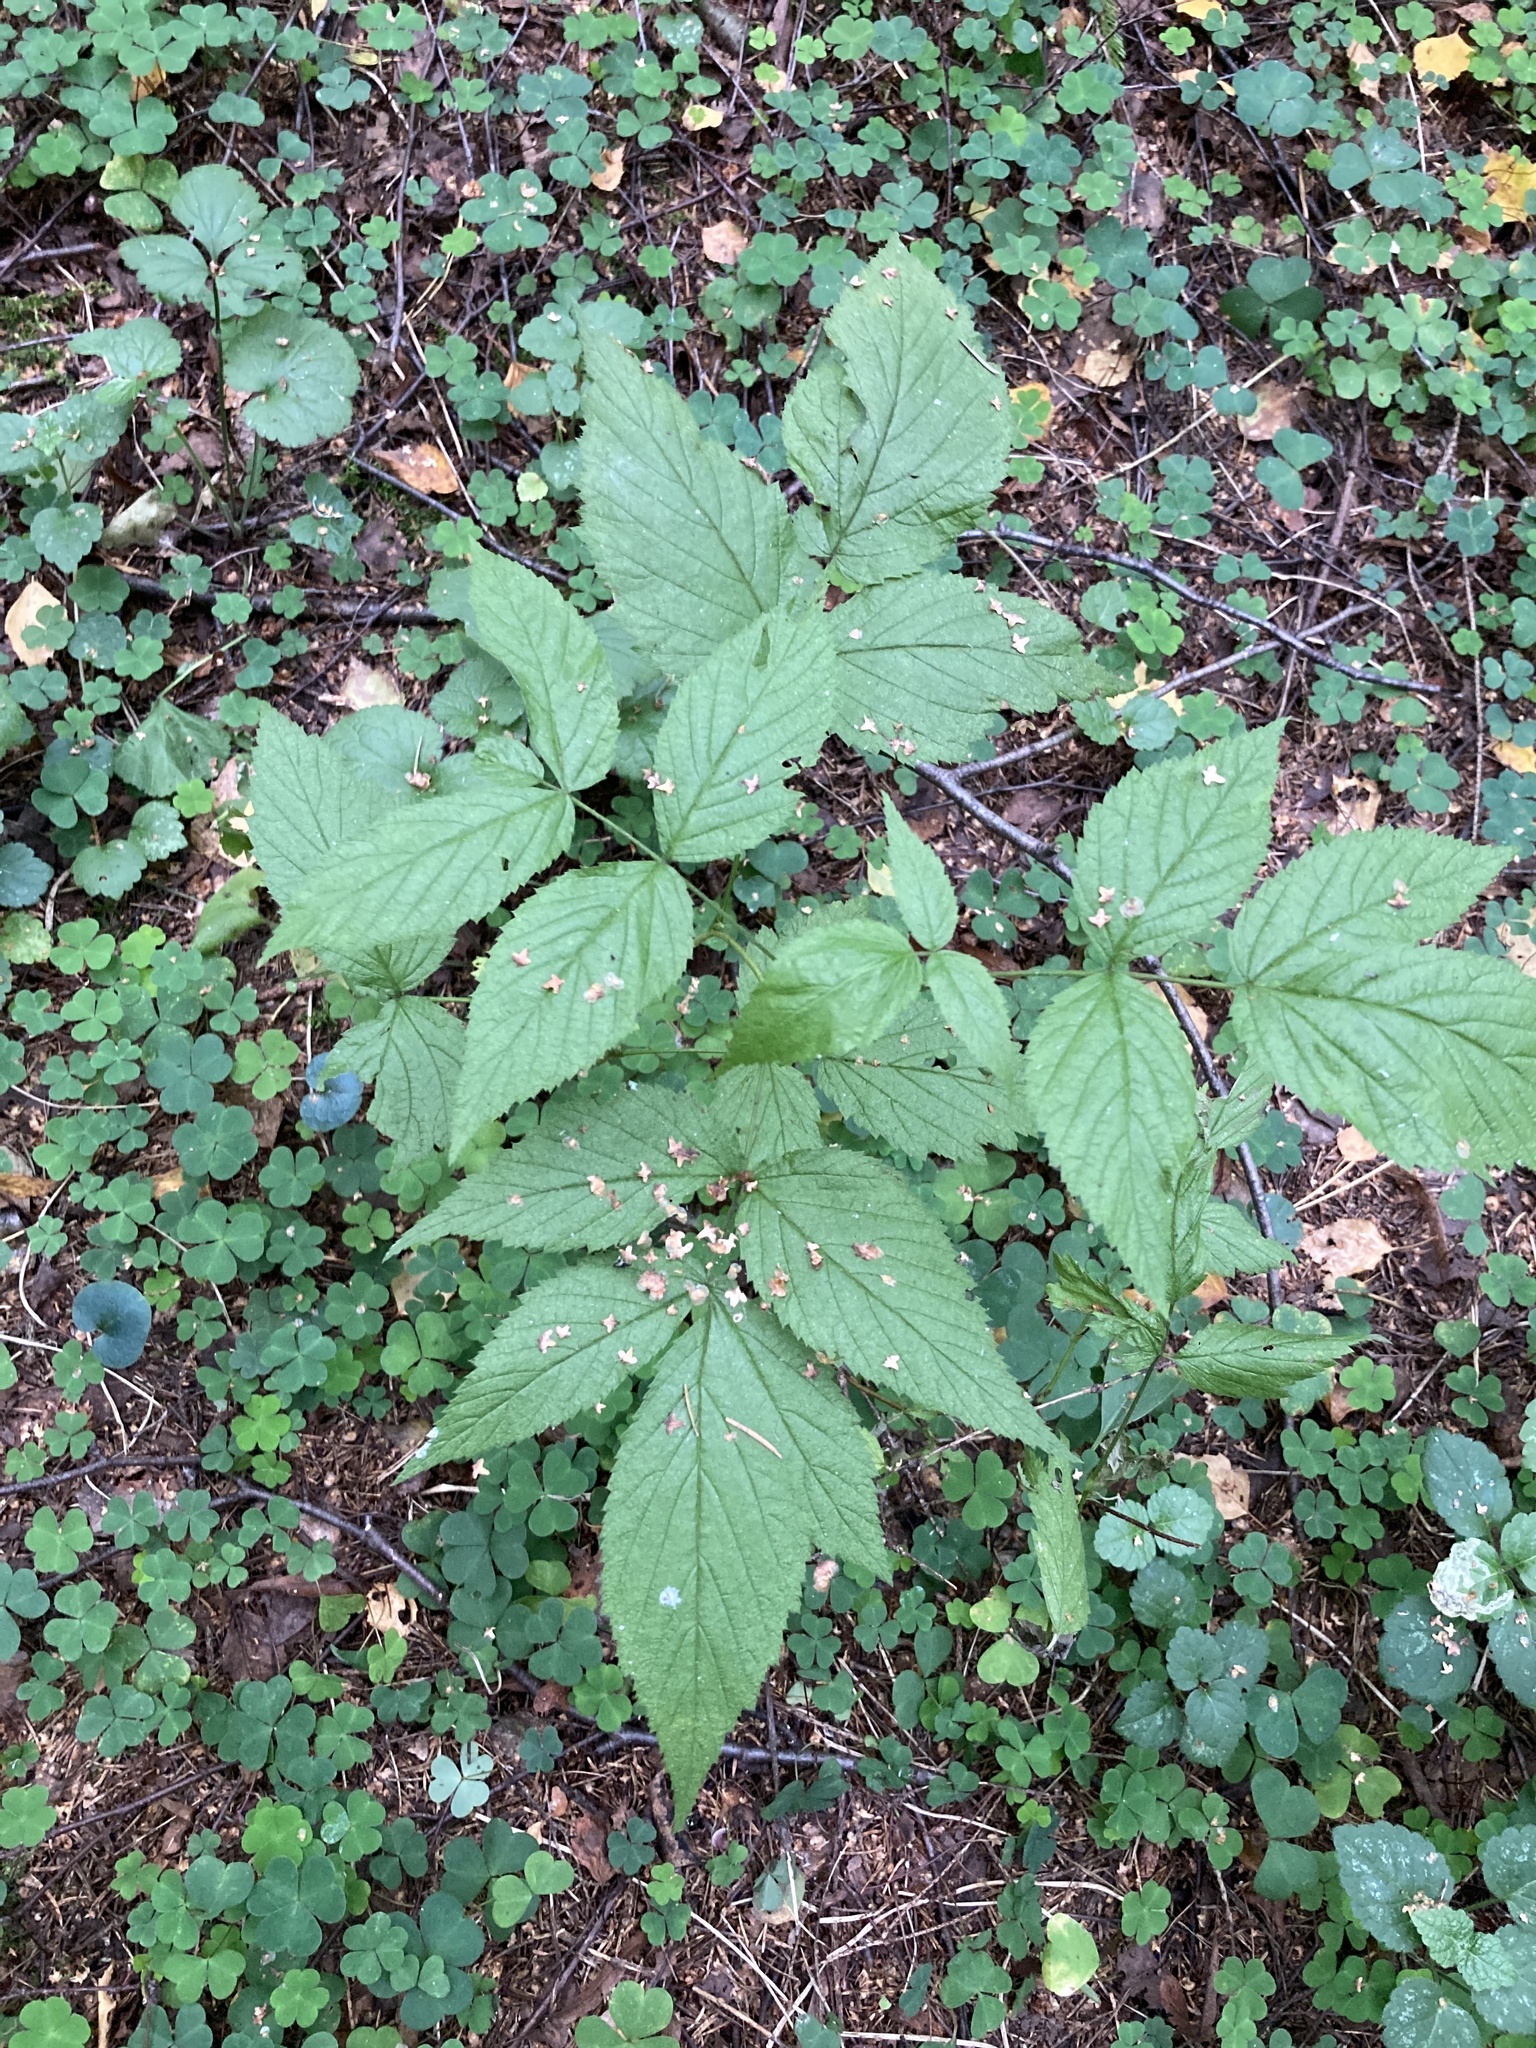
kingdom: Plantae
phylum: Tracheophyta
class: Magnoliopsida
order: Rosales
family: Rosaceae
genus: Rubus
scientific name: Rubus idaeus
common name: Raspberry
